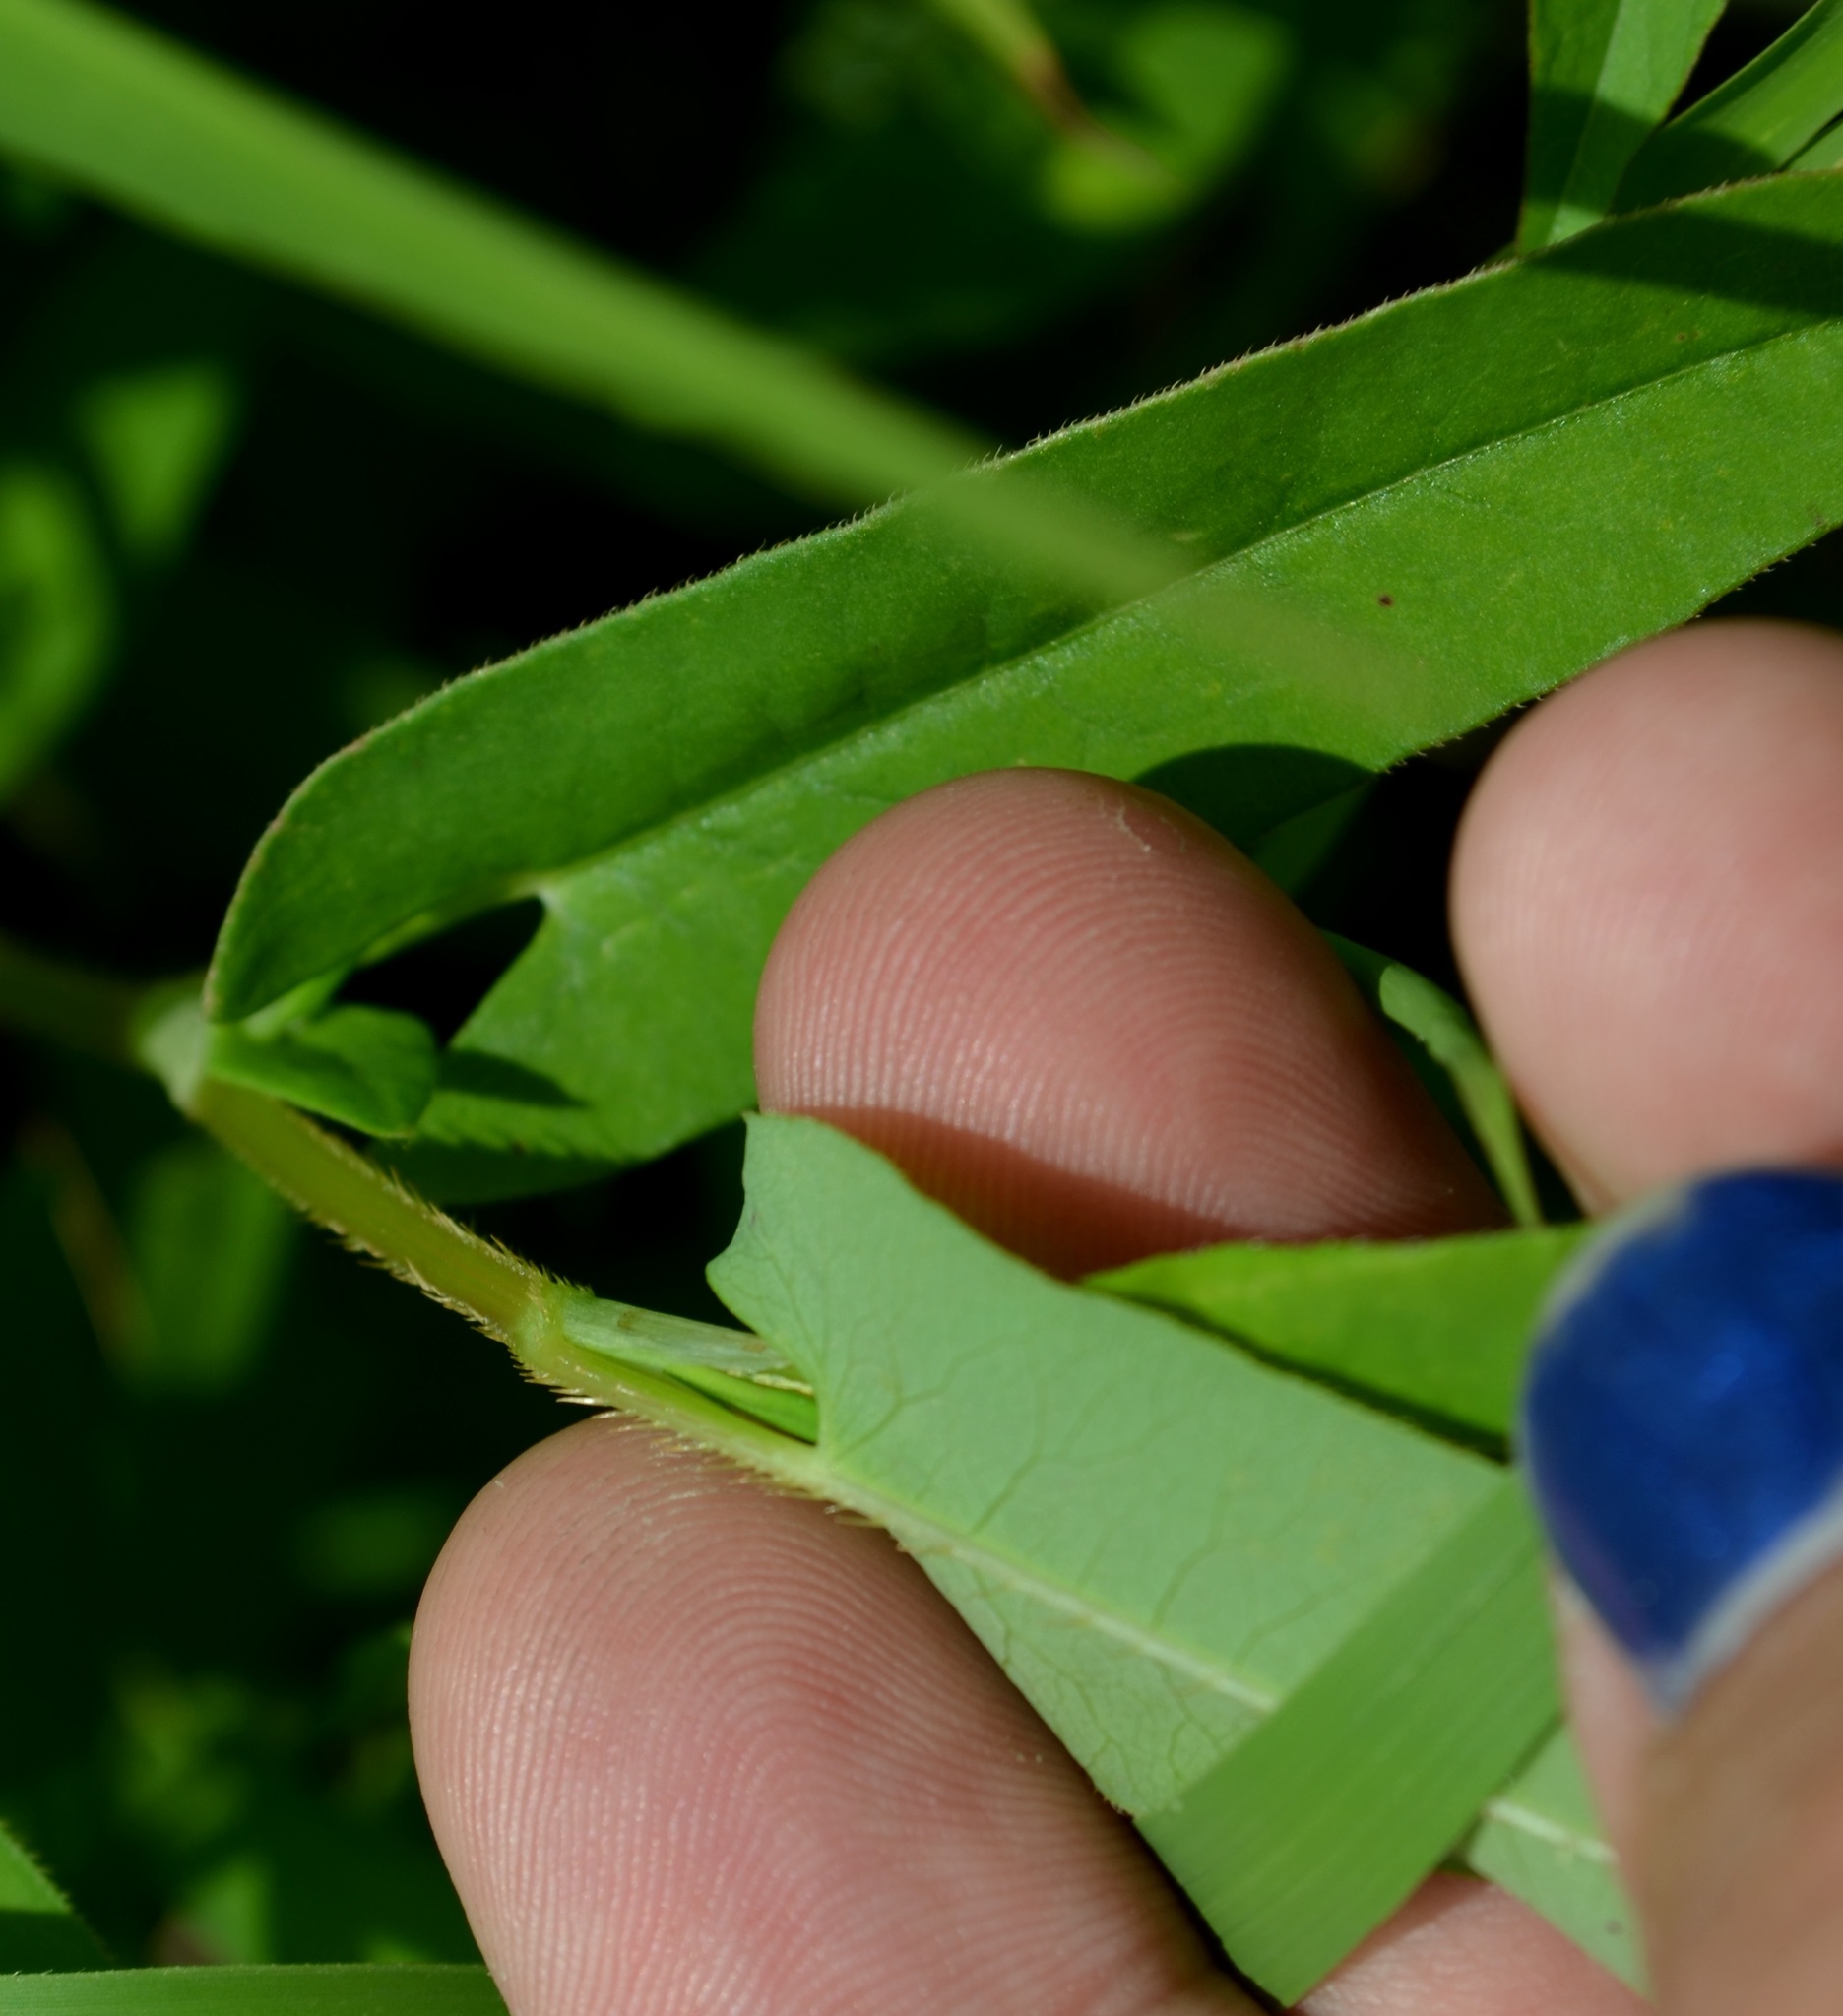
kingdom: Plantae
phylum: Tracheophyta
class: Magnoliopsida
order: Caryophyllales
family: Polygonaceae
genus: Persicaria
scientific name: Persicaria sagittata
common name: American tearthumb
